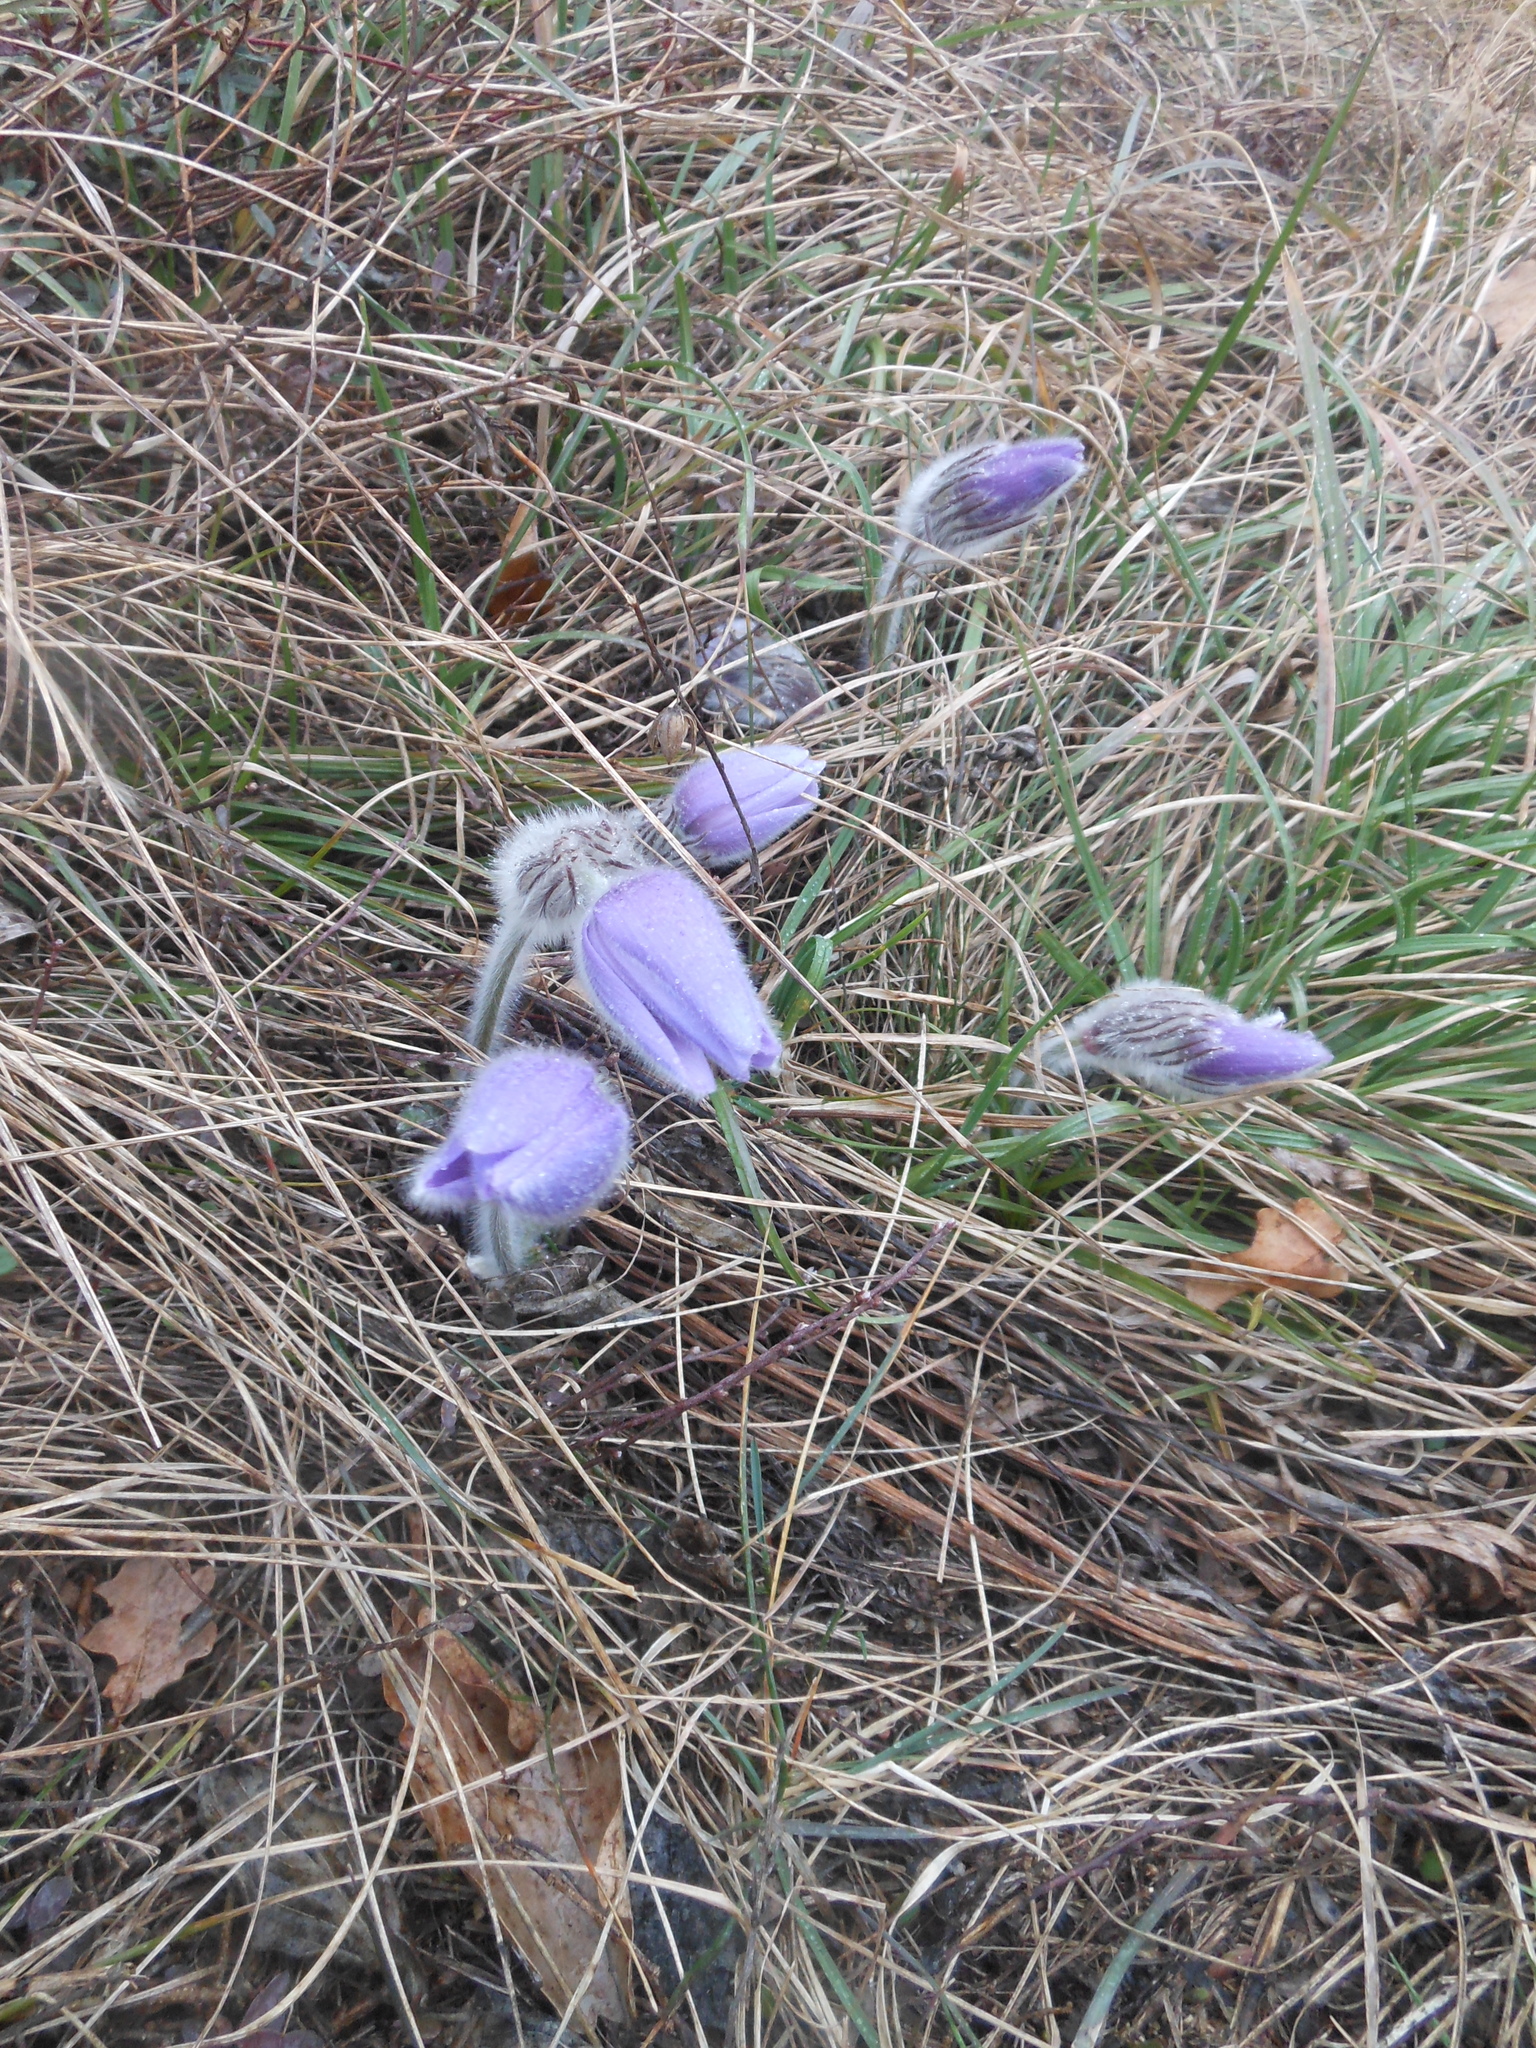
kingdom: Plantae
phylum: Tracheophyta
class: Magnoliopsida
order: Ranunculales
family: Ranunculaceae
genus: Pulsatilla
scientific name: Pulsatilla grandis
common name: Greater pasque flower
